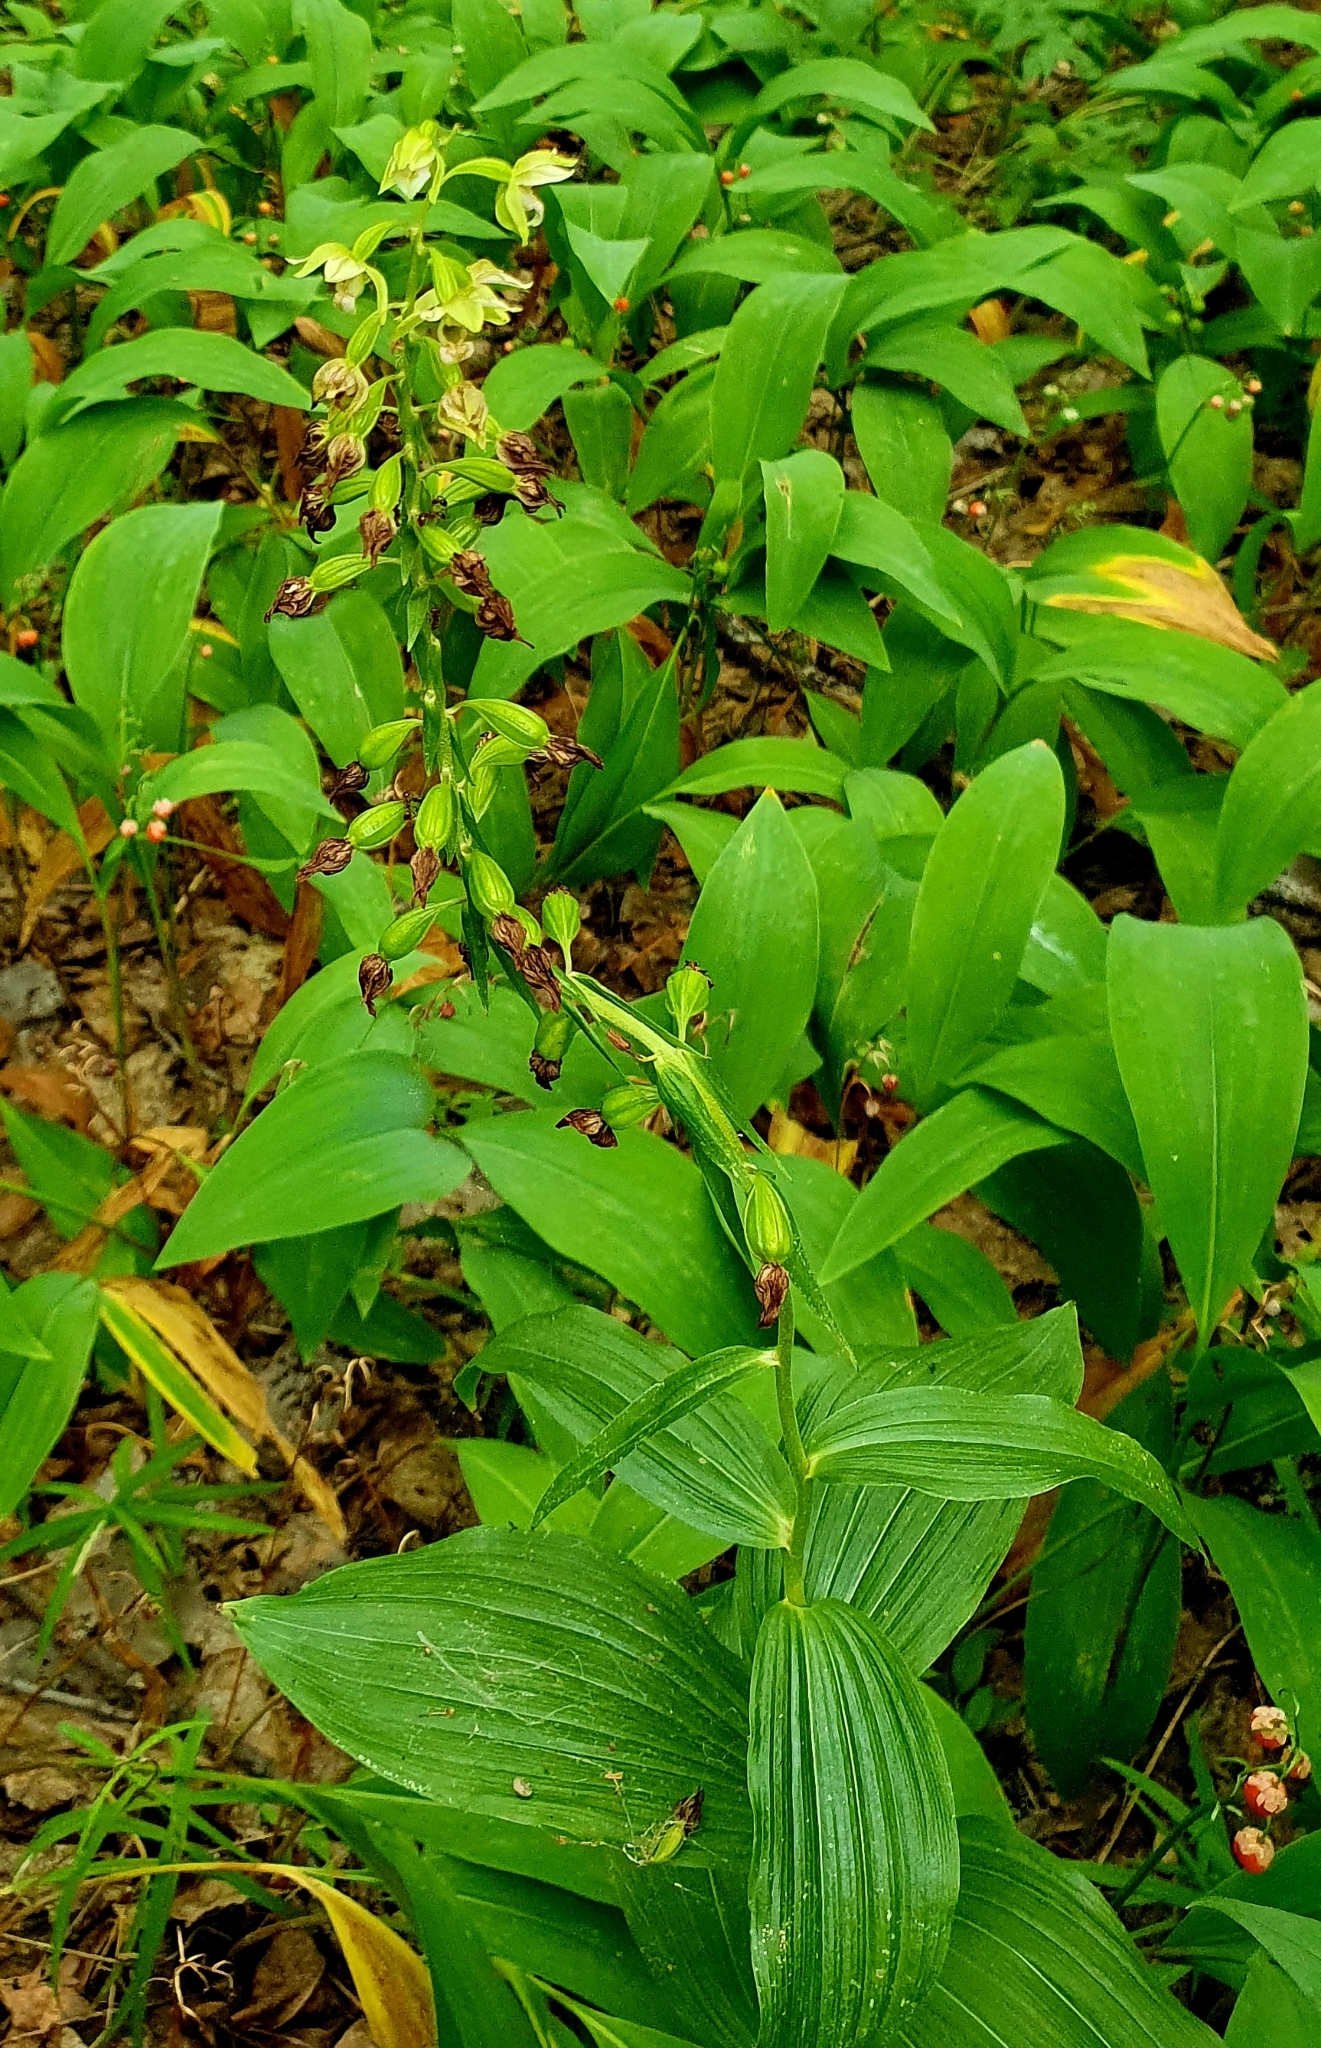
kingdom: Plantae
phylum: Tracheophyta
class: Liliopsida
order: Asparagales
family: Orchidaceae
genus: Epipactis
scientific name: Epipactis helleborine
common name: Broad-leaved helleborine
